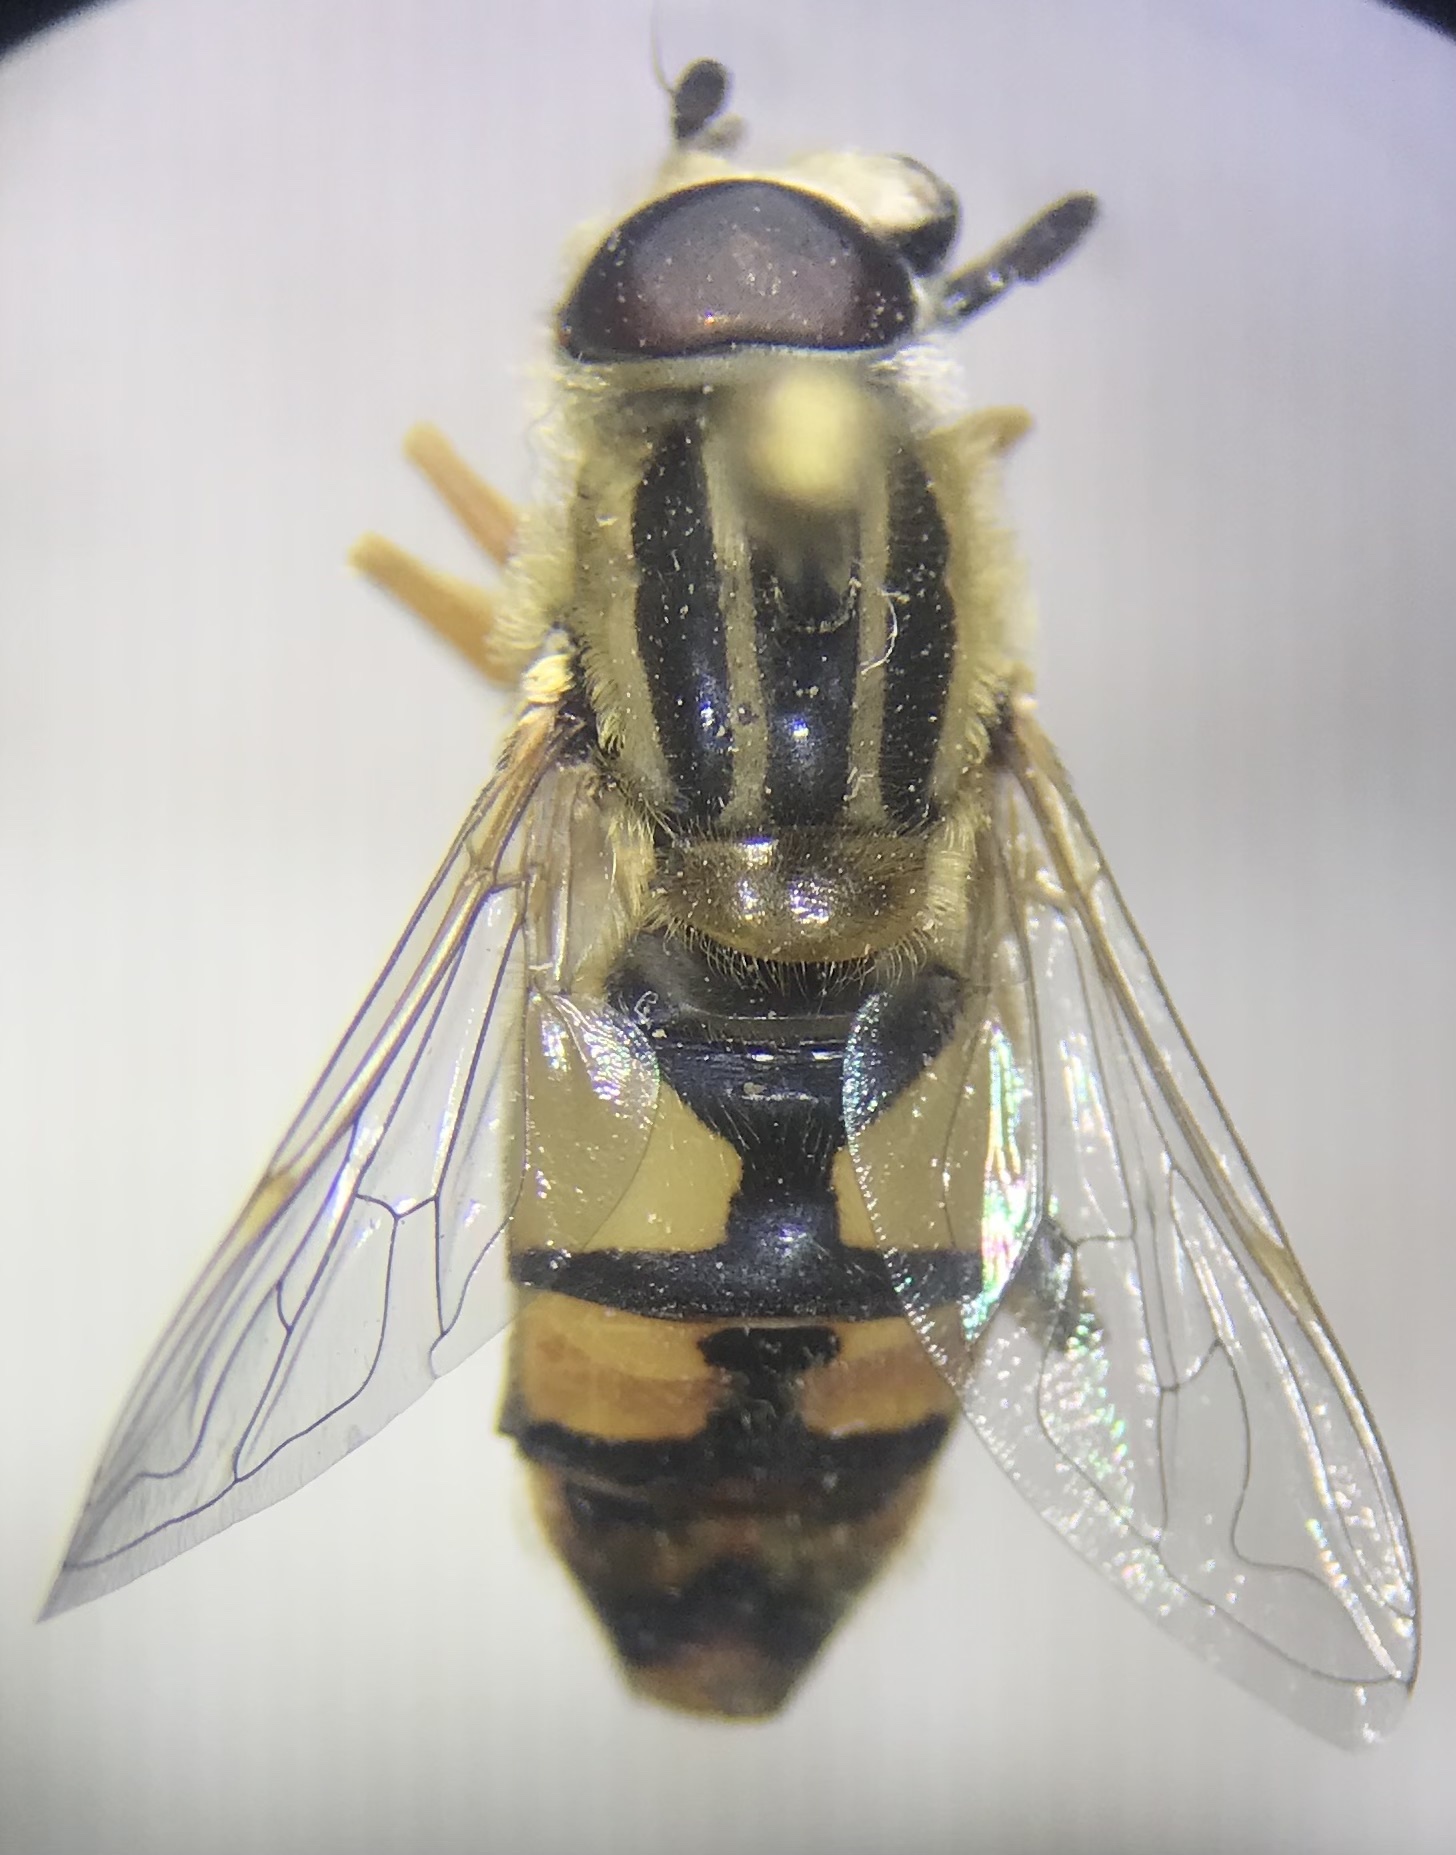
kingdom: Animalia
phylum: Arthropoda
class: Insecta
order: Diptera
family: Syrphidae
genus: Helophilus
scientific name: Helophilus latifrons
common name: Broad-headed marsh fly
